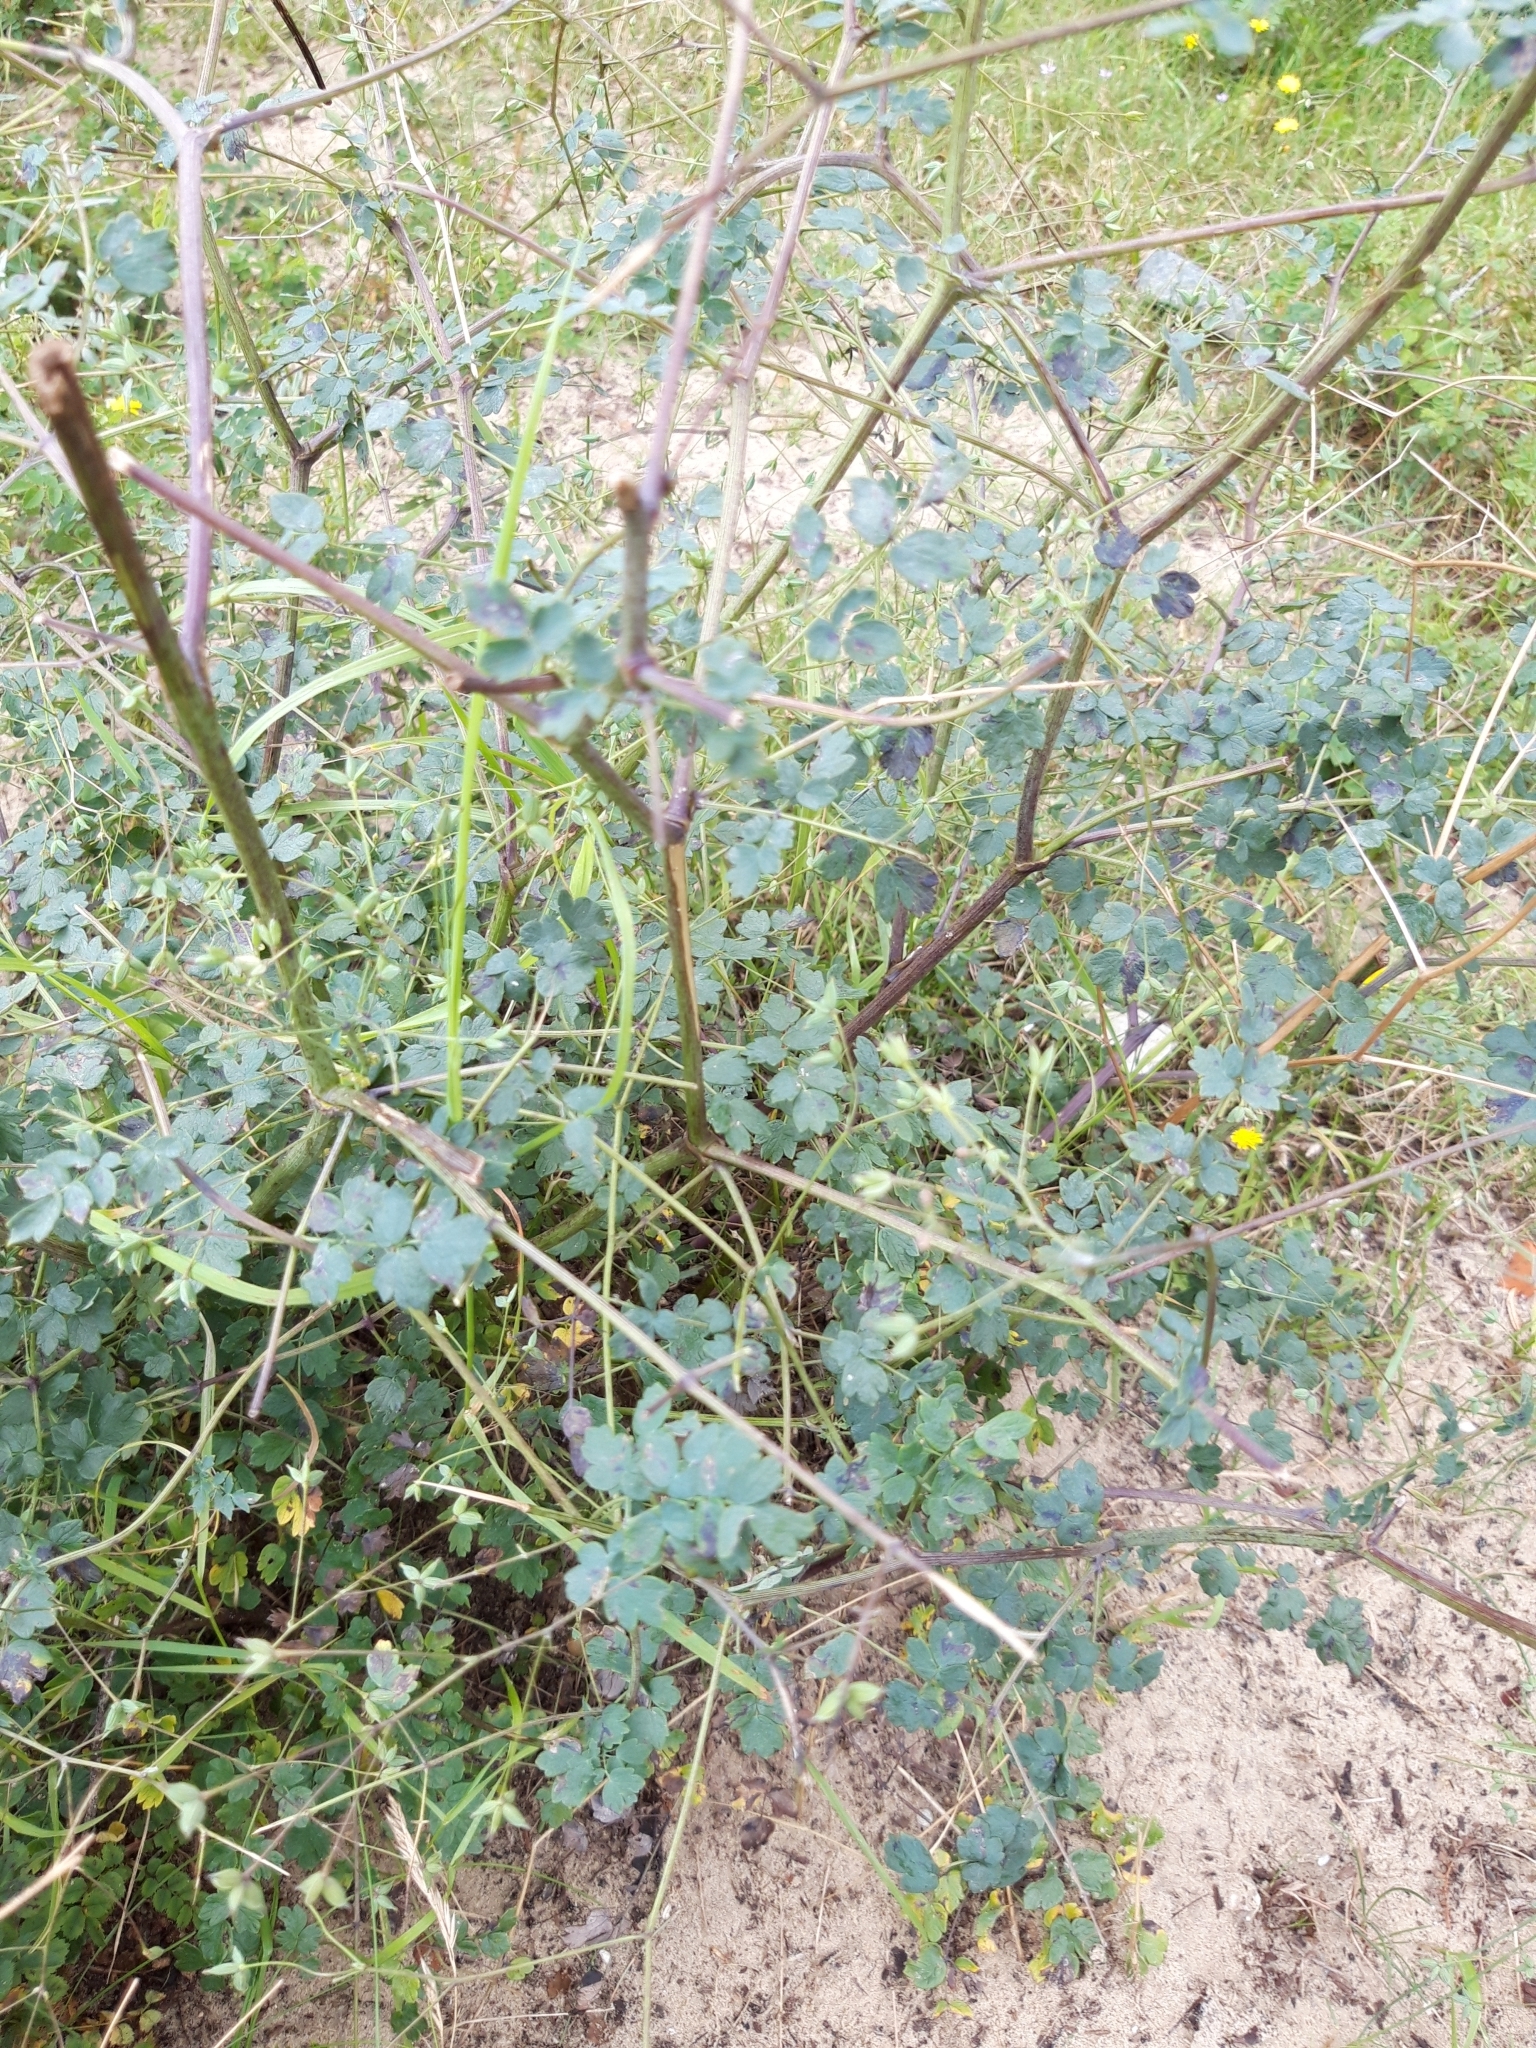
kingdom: Plantae
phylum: Tracheophyta
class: Magnoliopsida
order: Ranunculales
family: Ranunculaceae
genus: Thalictrum
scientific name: Thalictrum minus
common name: Lesser meadow-rue
